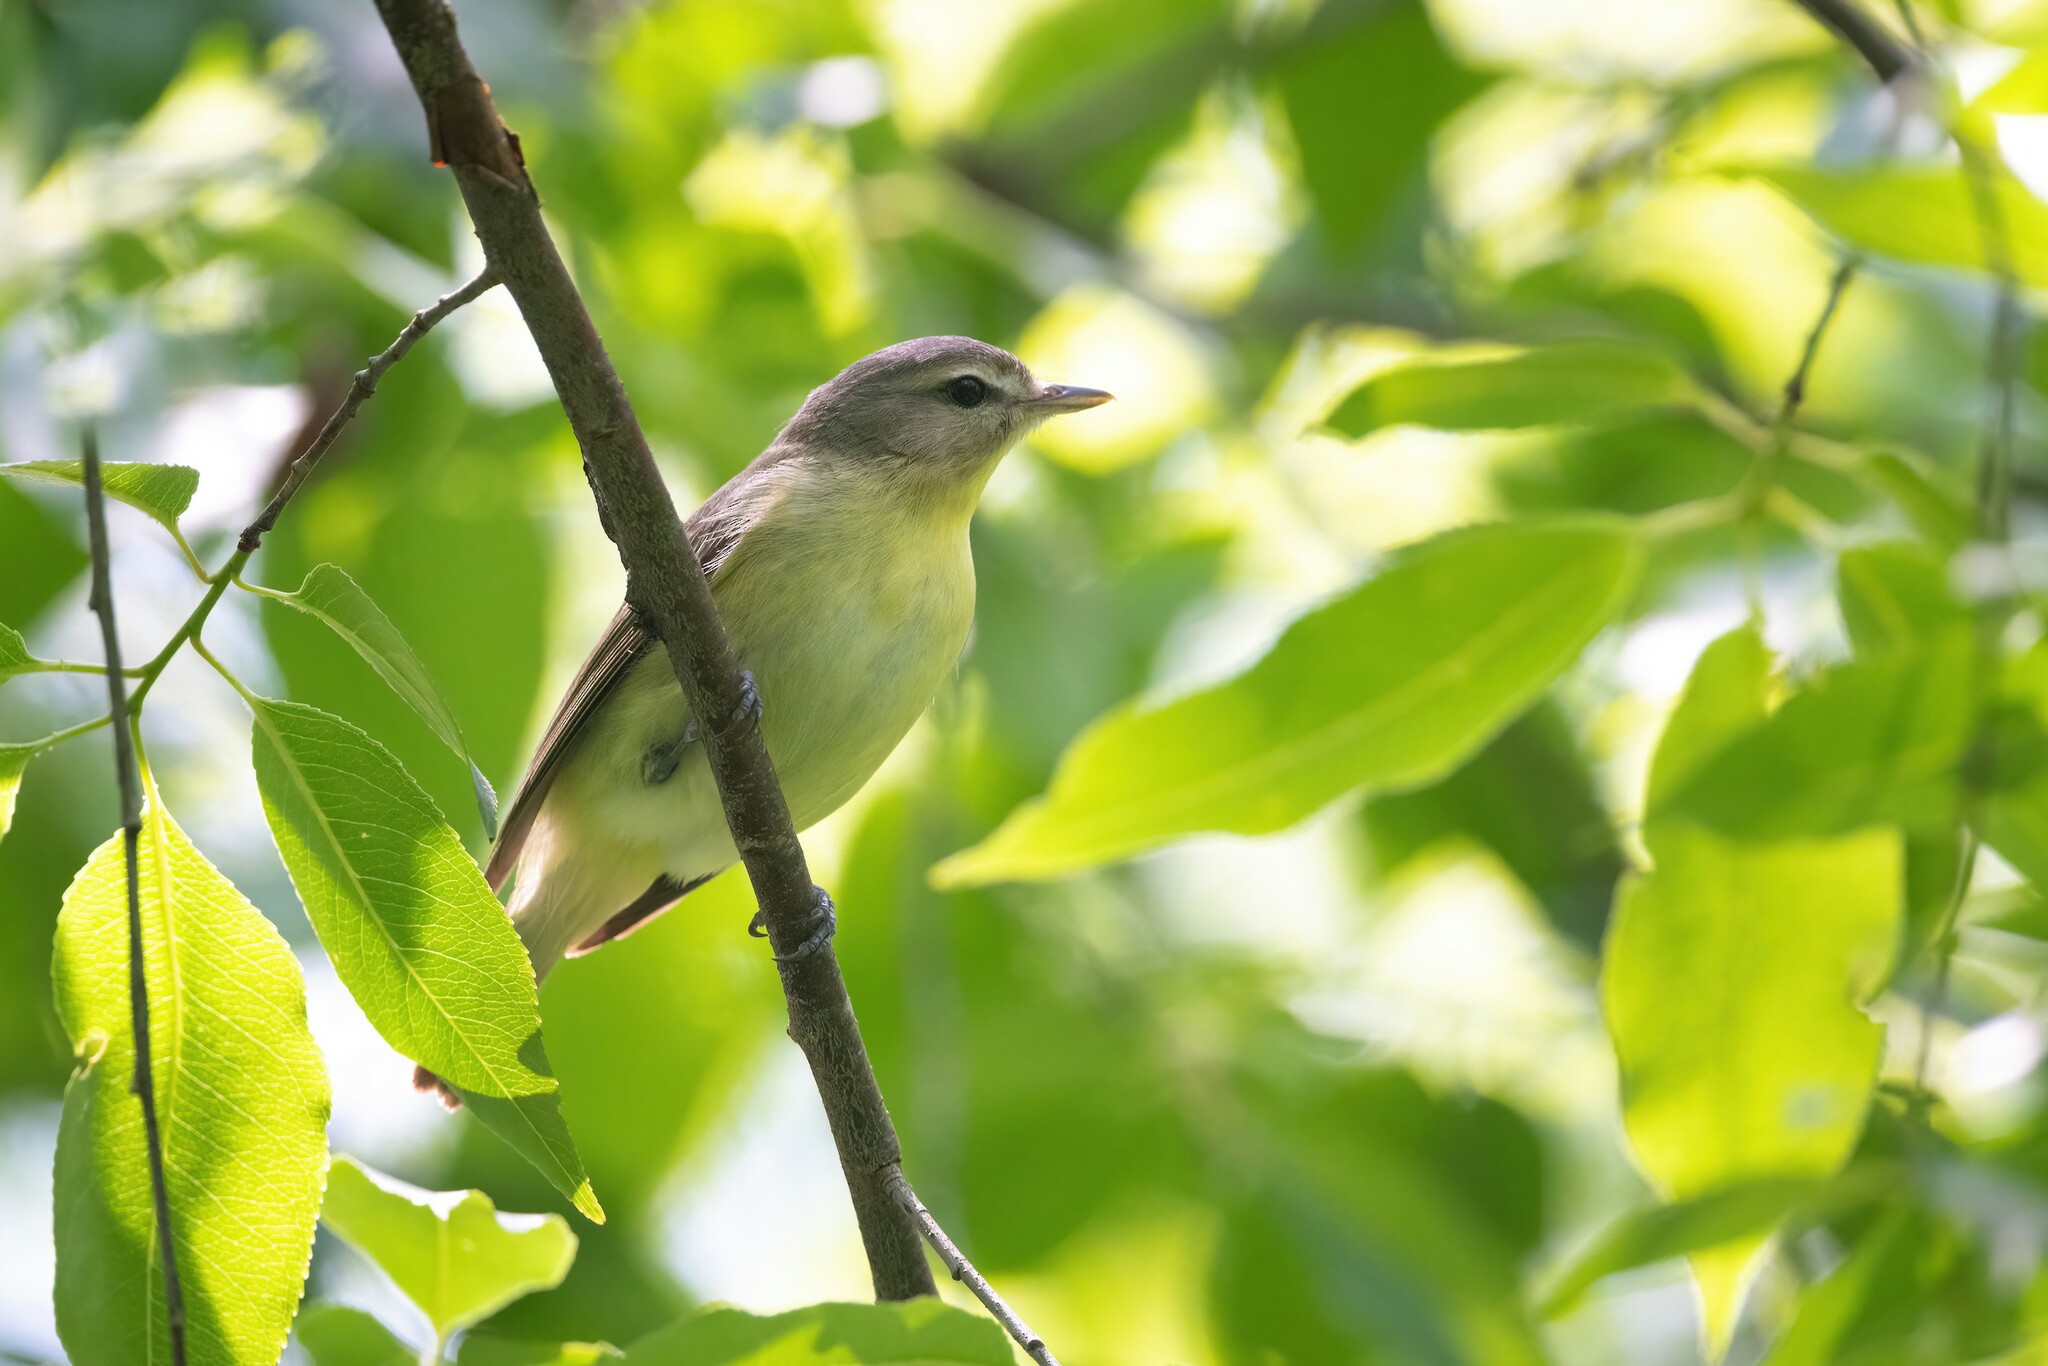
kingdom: Animalia
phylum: Chordata
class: Aves
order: Passeriformes
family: Vireonidae
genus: Vireo
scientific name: Vireo philadelphicus
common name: Philadelphia vireo
